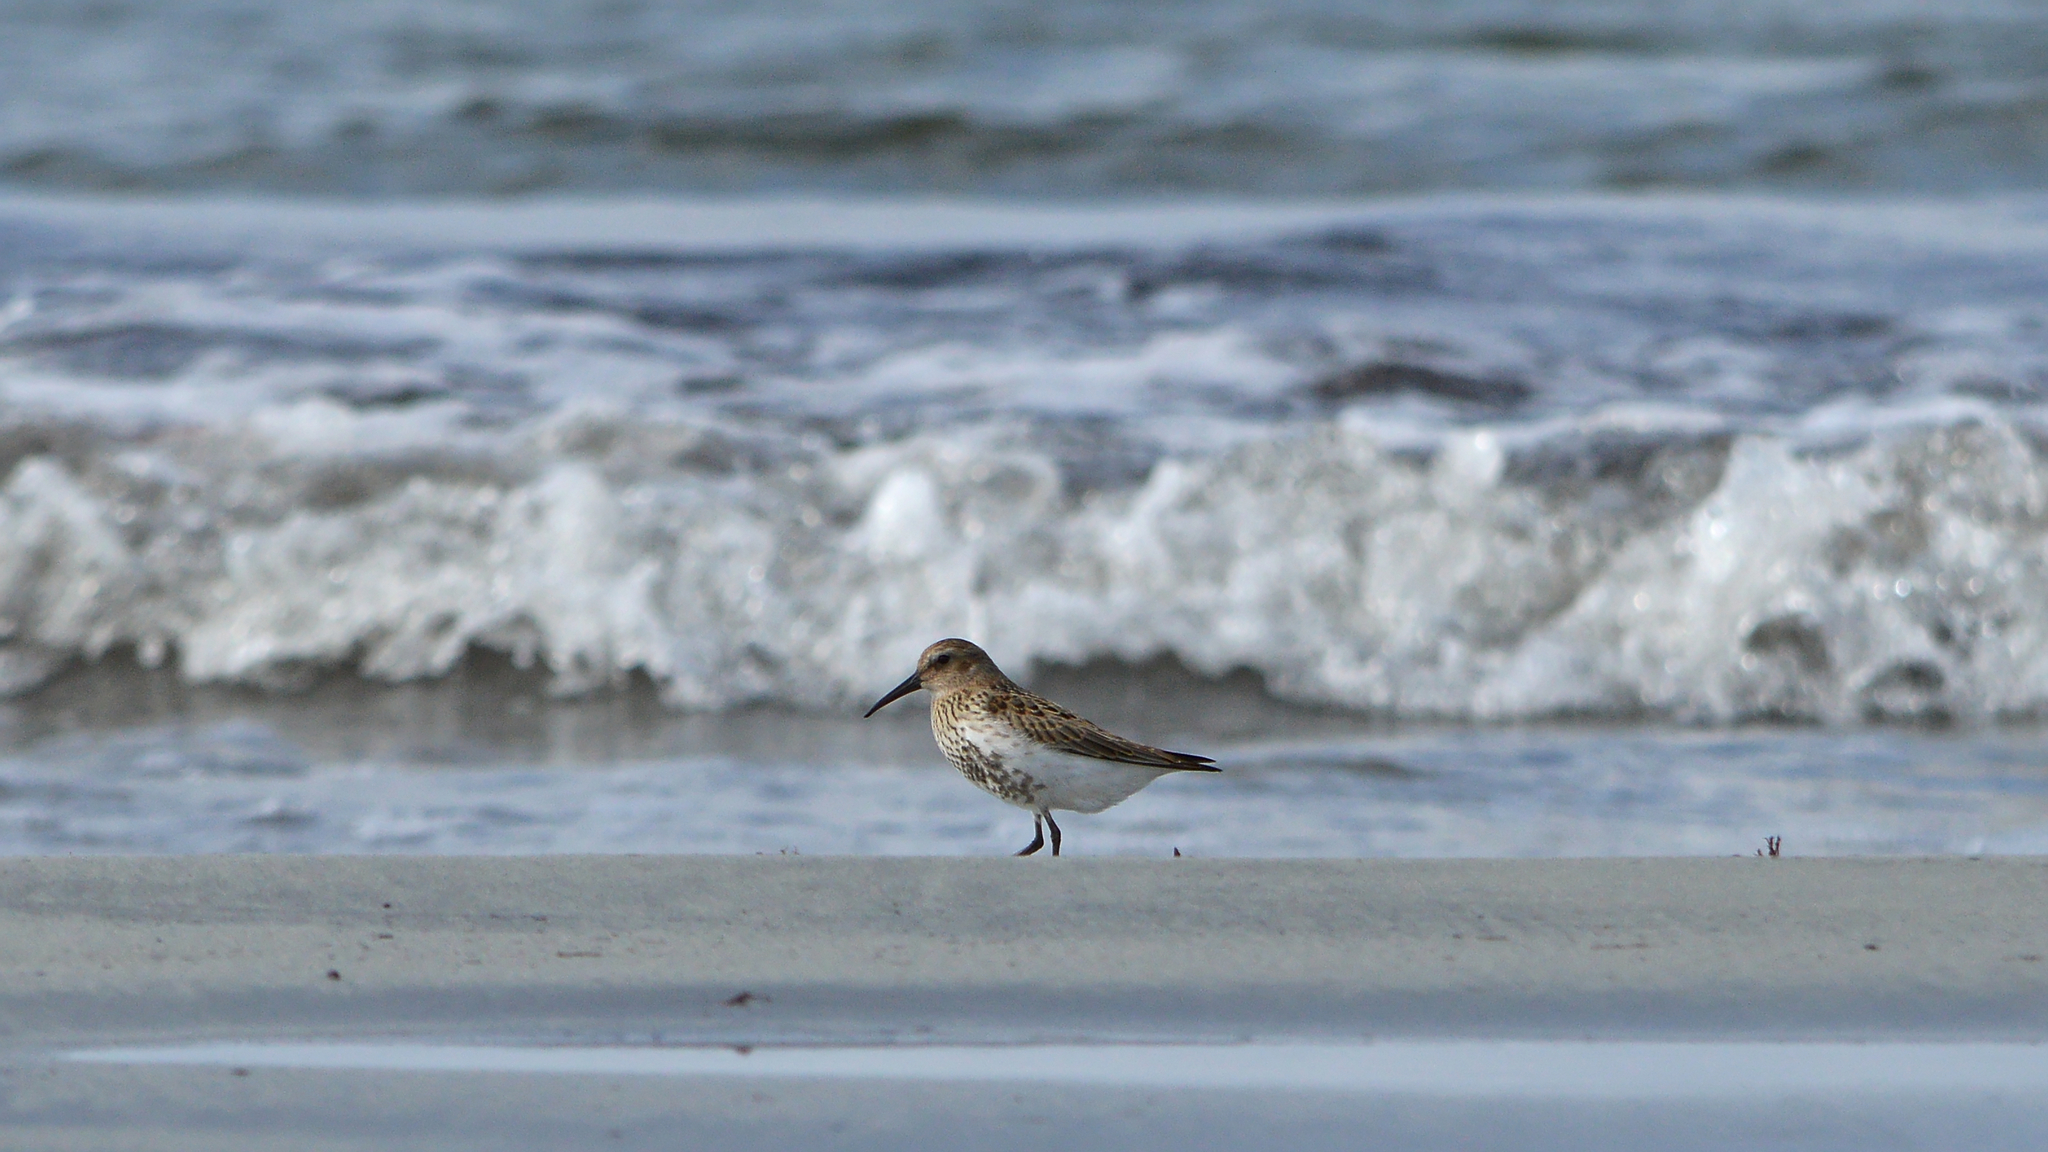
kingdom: Animalia
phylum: Chordata
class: Aves
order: Charadriiformes
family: Scolopacidae
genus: Calidris
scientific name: Calidris alpina
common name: Dunlin
